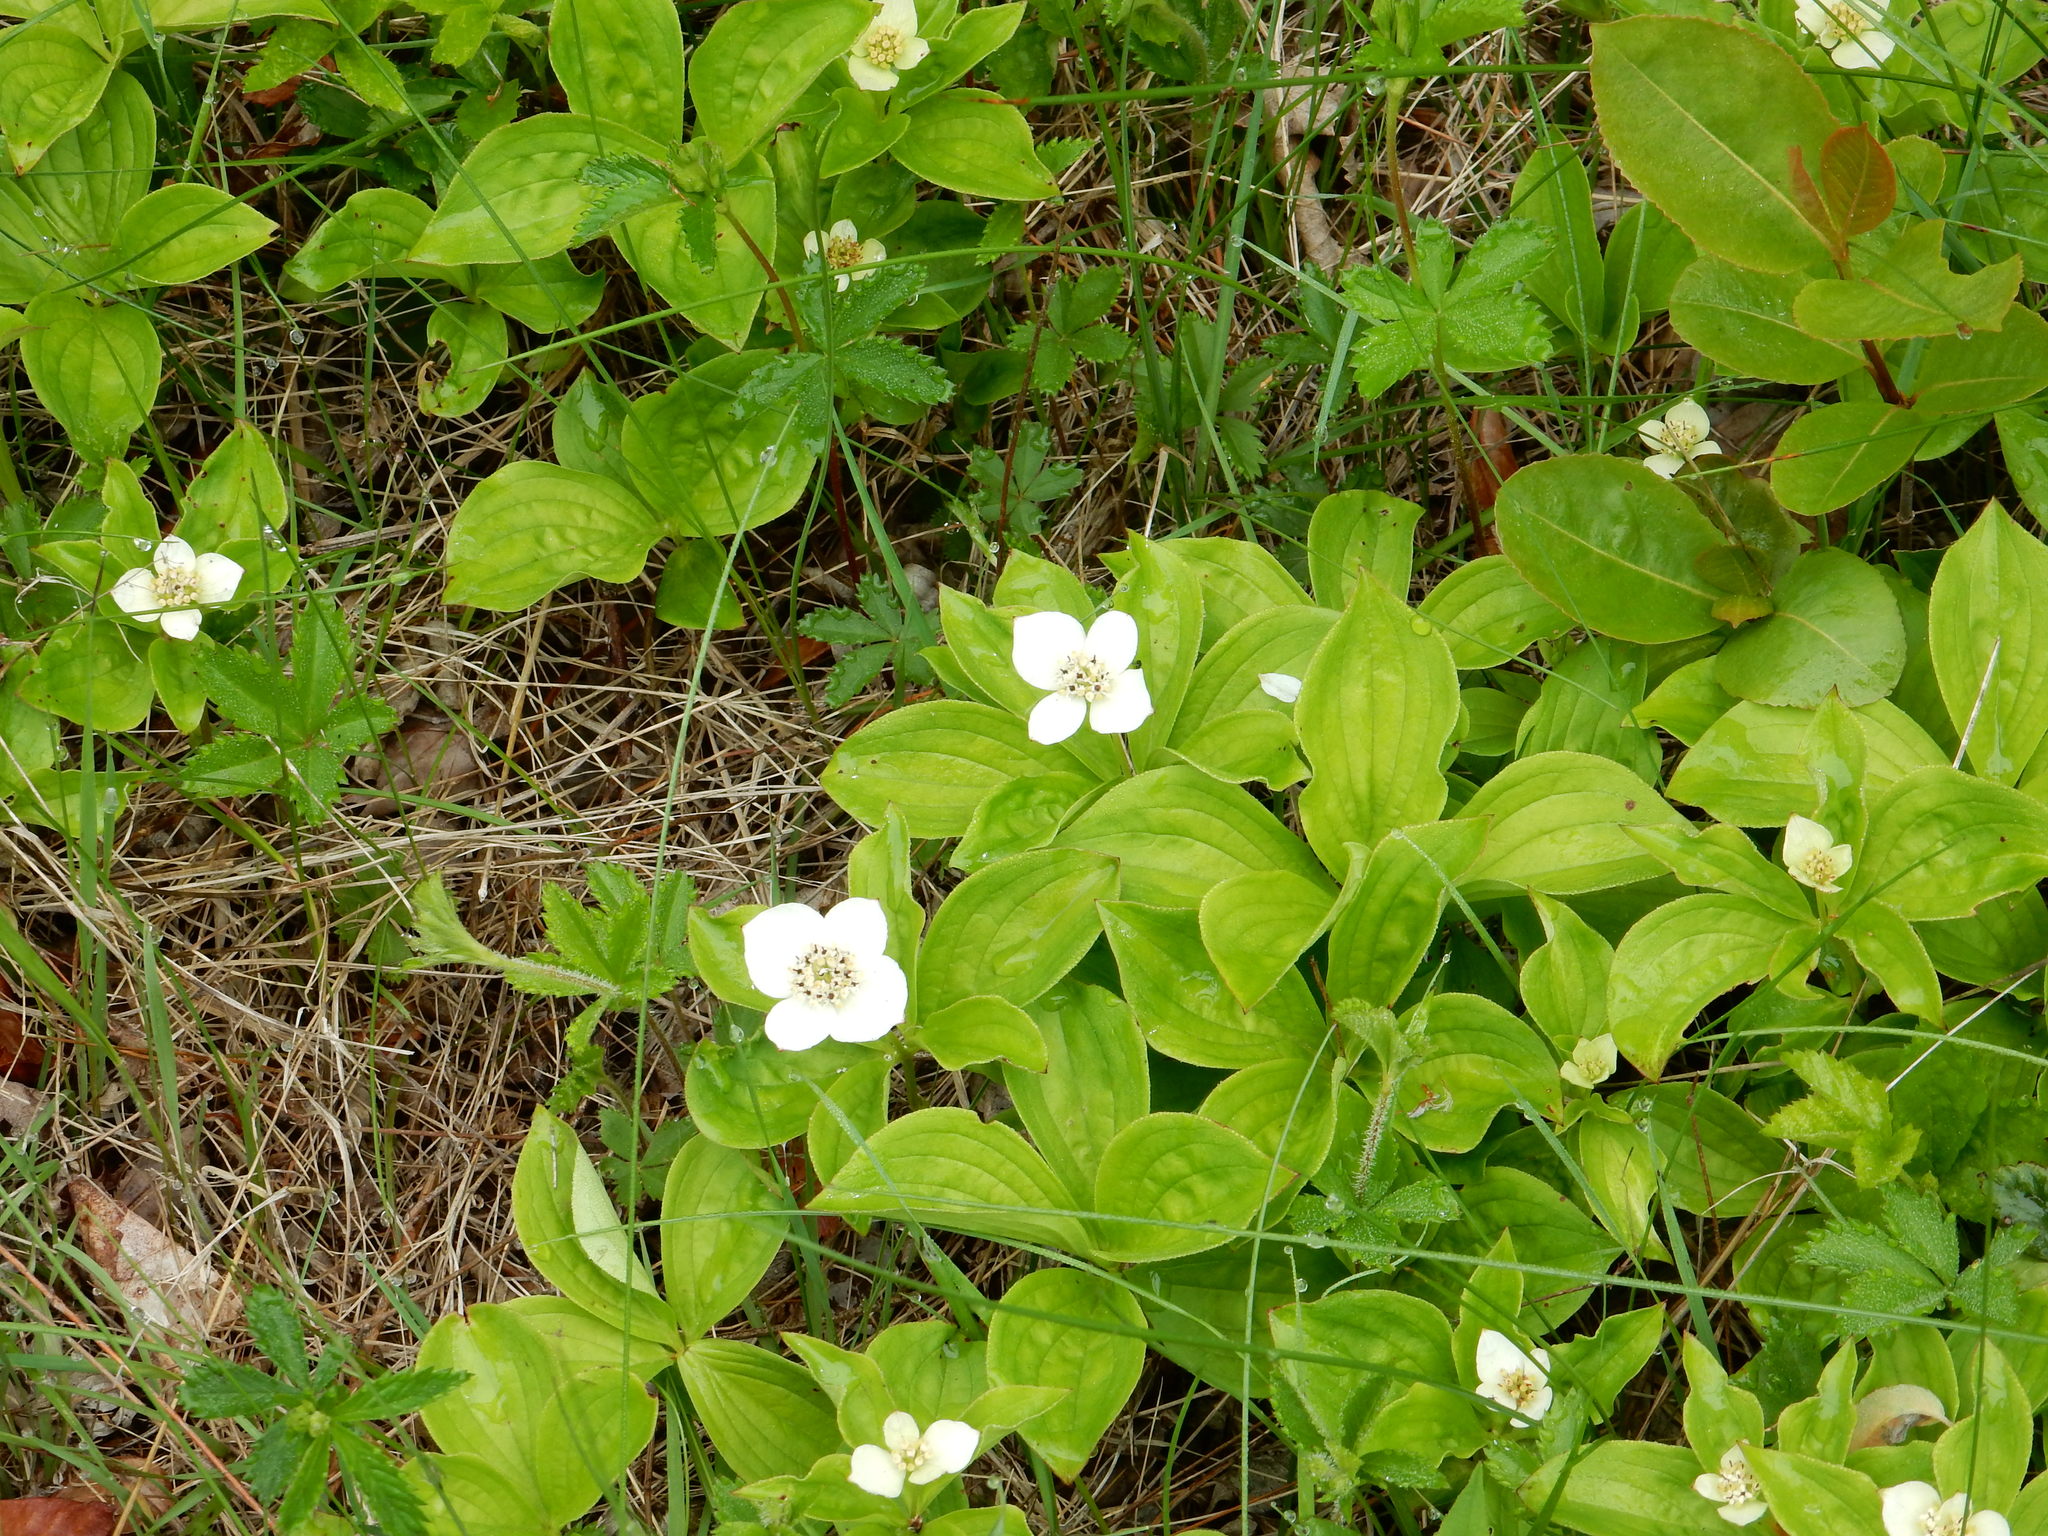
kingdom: Plantae
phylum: Tracheophyta
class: Magnoliopsida
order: Cornales
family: Cornaceae
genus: Cornus
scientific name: Cornus canadensis
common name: Creeping dogwood
